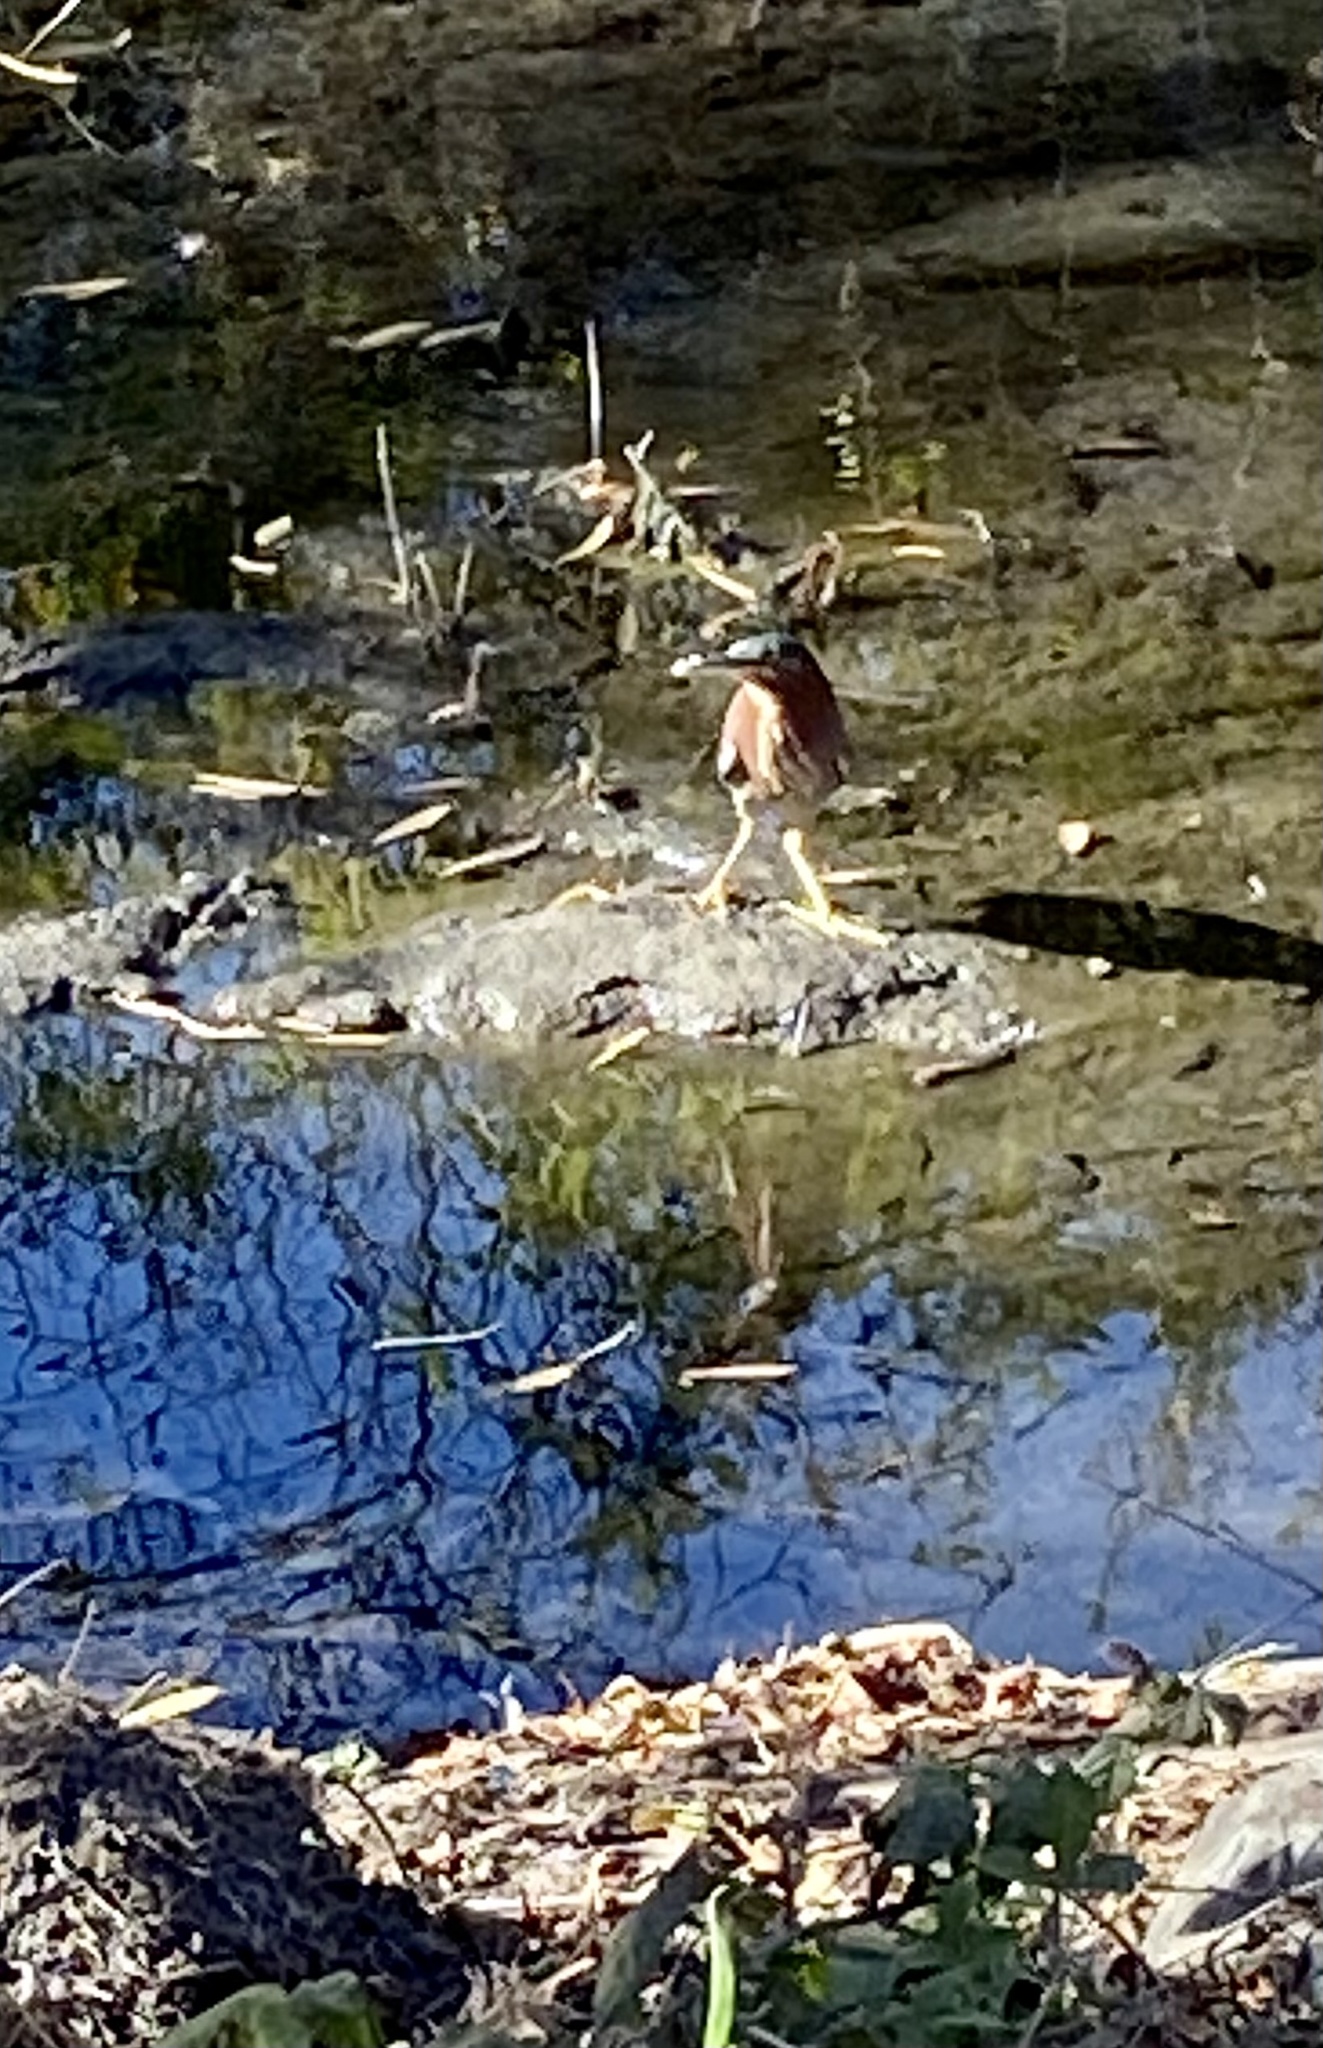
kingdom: Animalia
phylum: Chordata
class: Aves
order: Pelecaniformes
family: Ardeidae
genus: Butorides
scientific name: Butorides virescens
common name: Green heron
